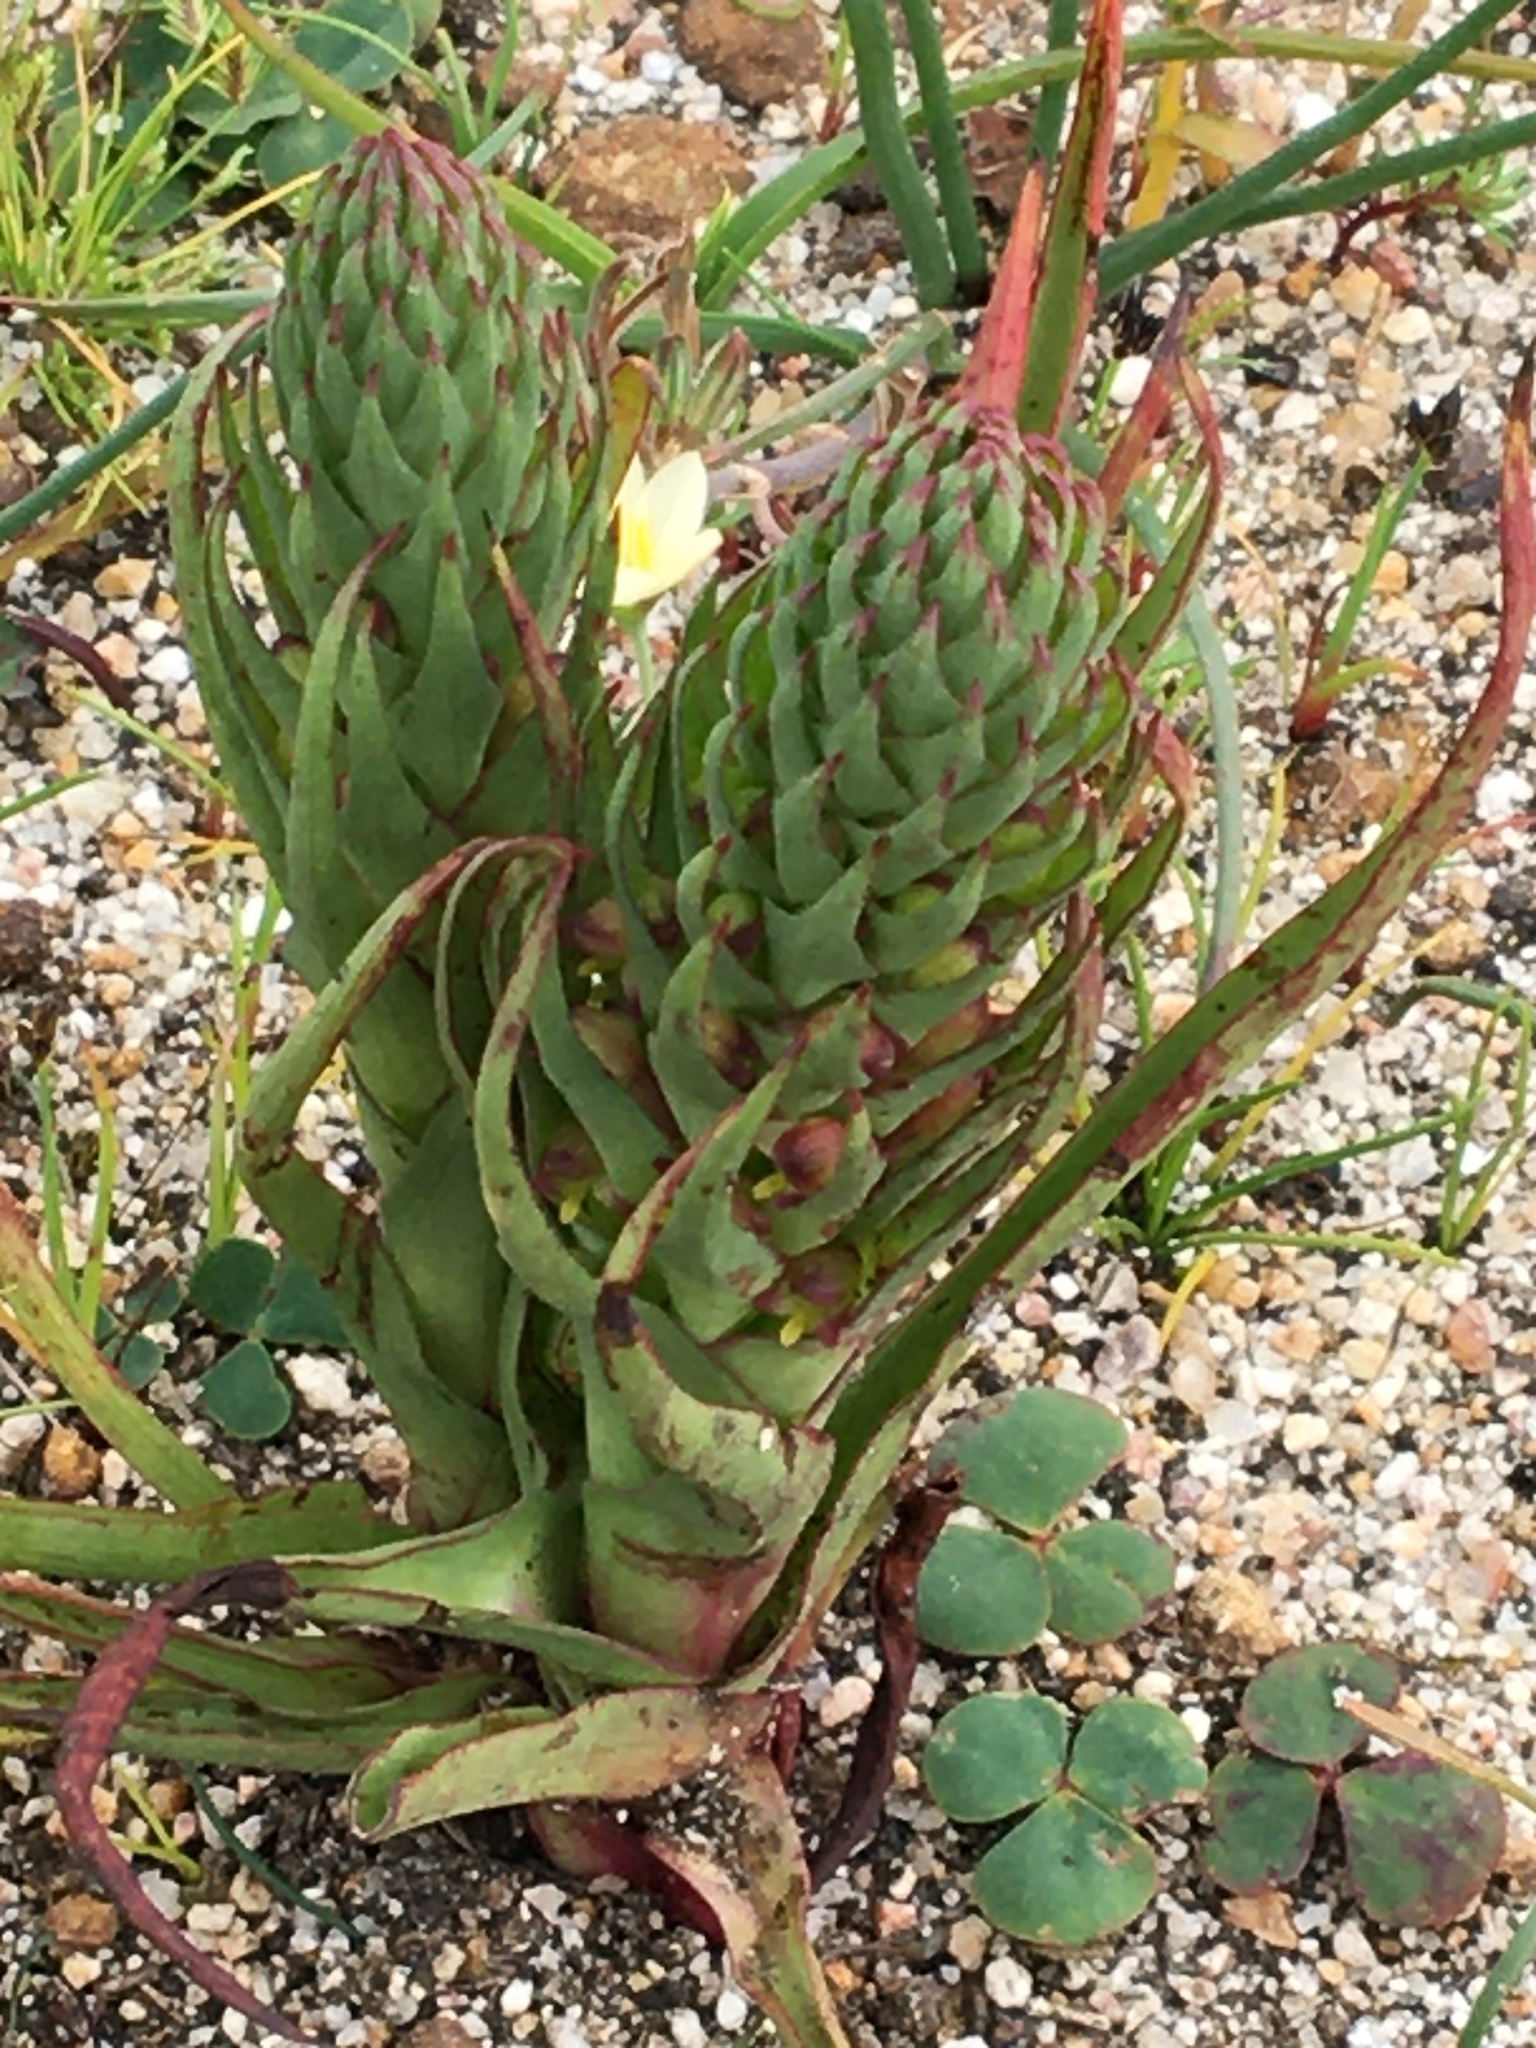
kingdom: Plantae
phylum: Tracheophyta
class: Liliopsida
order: Asparagales
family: Orchidaceae
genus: Disa
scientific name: Disa bracteata
